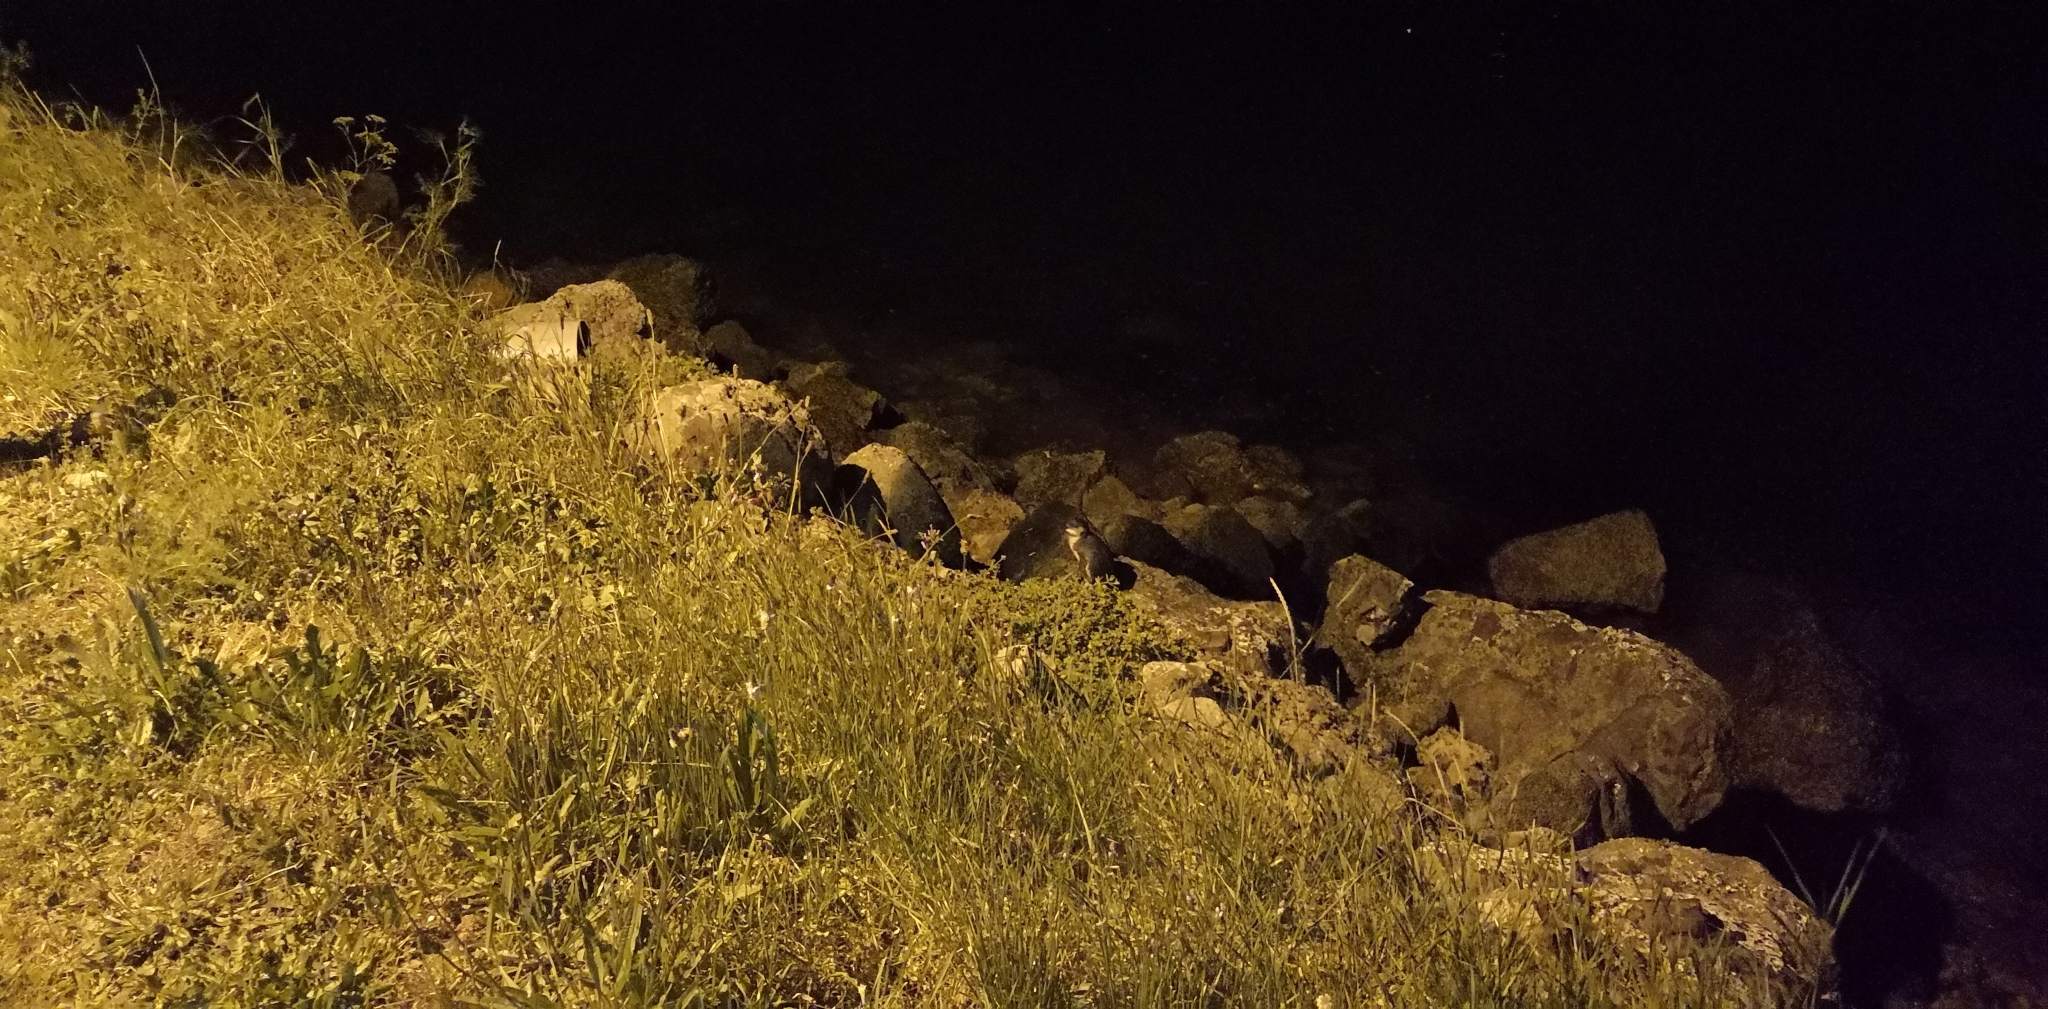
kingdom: Animalia
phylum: Chordata
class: Aves
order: Sphenisciformes
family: Spheniscidae
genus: Eudyptula
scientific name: Eudyptula minor
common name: Little penguin
